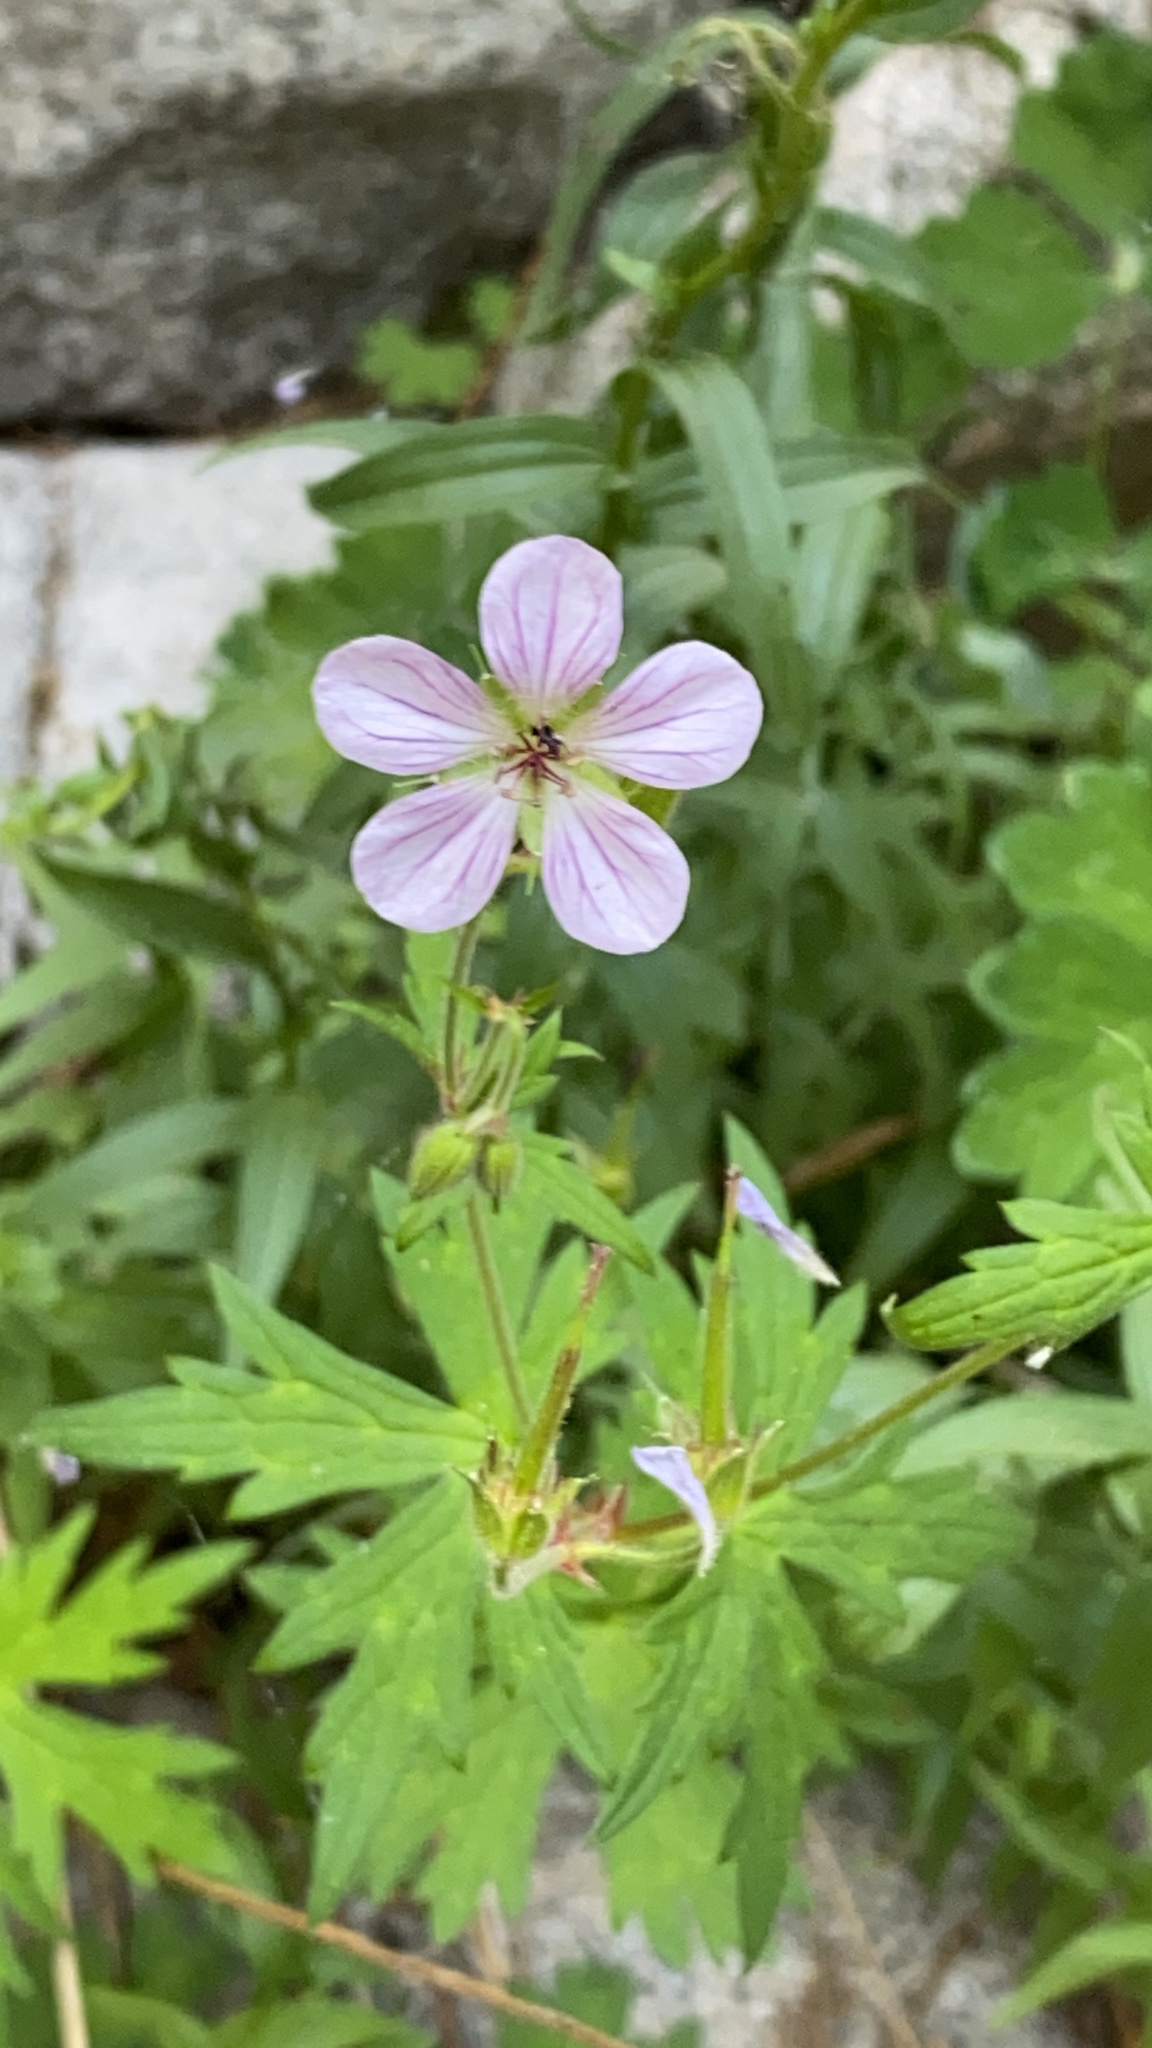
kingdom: Plantae
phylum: Tracheophyta
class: Magnoliopsida
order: Geraniales
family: Geraniaceae
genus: Geranium
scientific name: Geranium californicum
